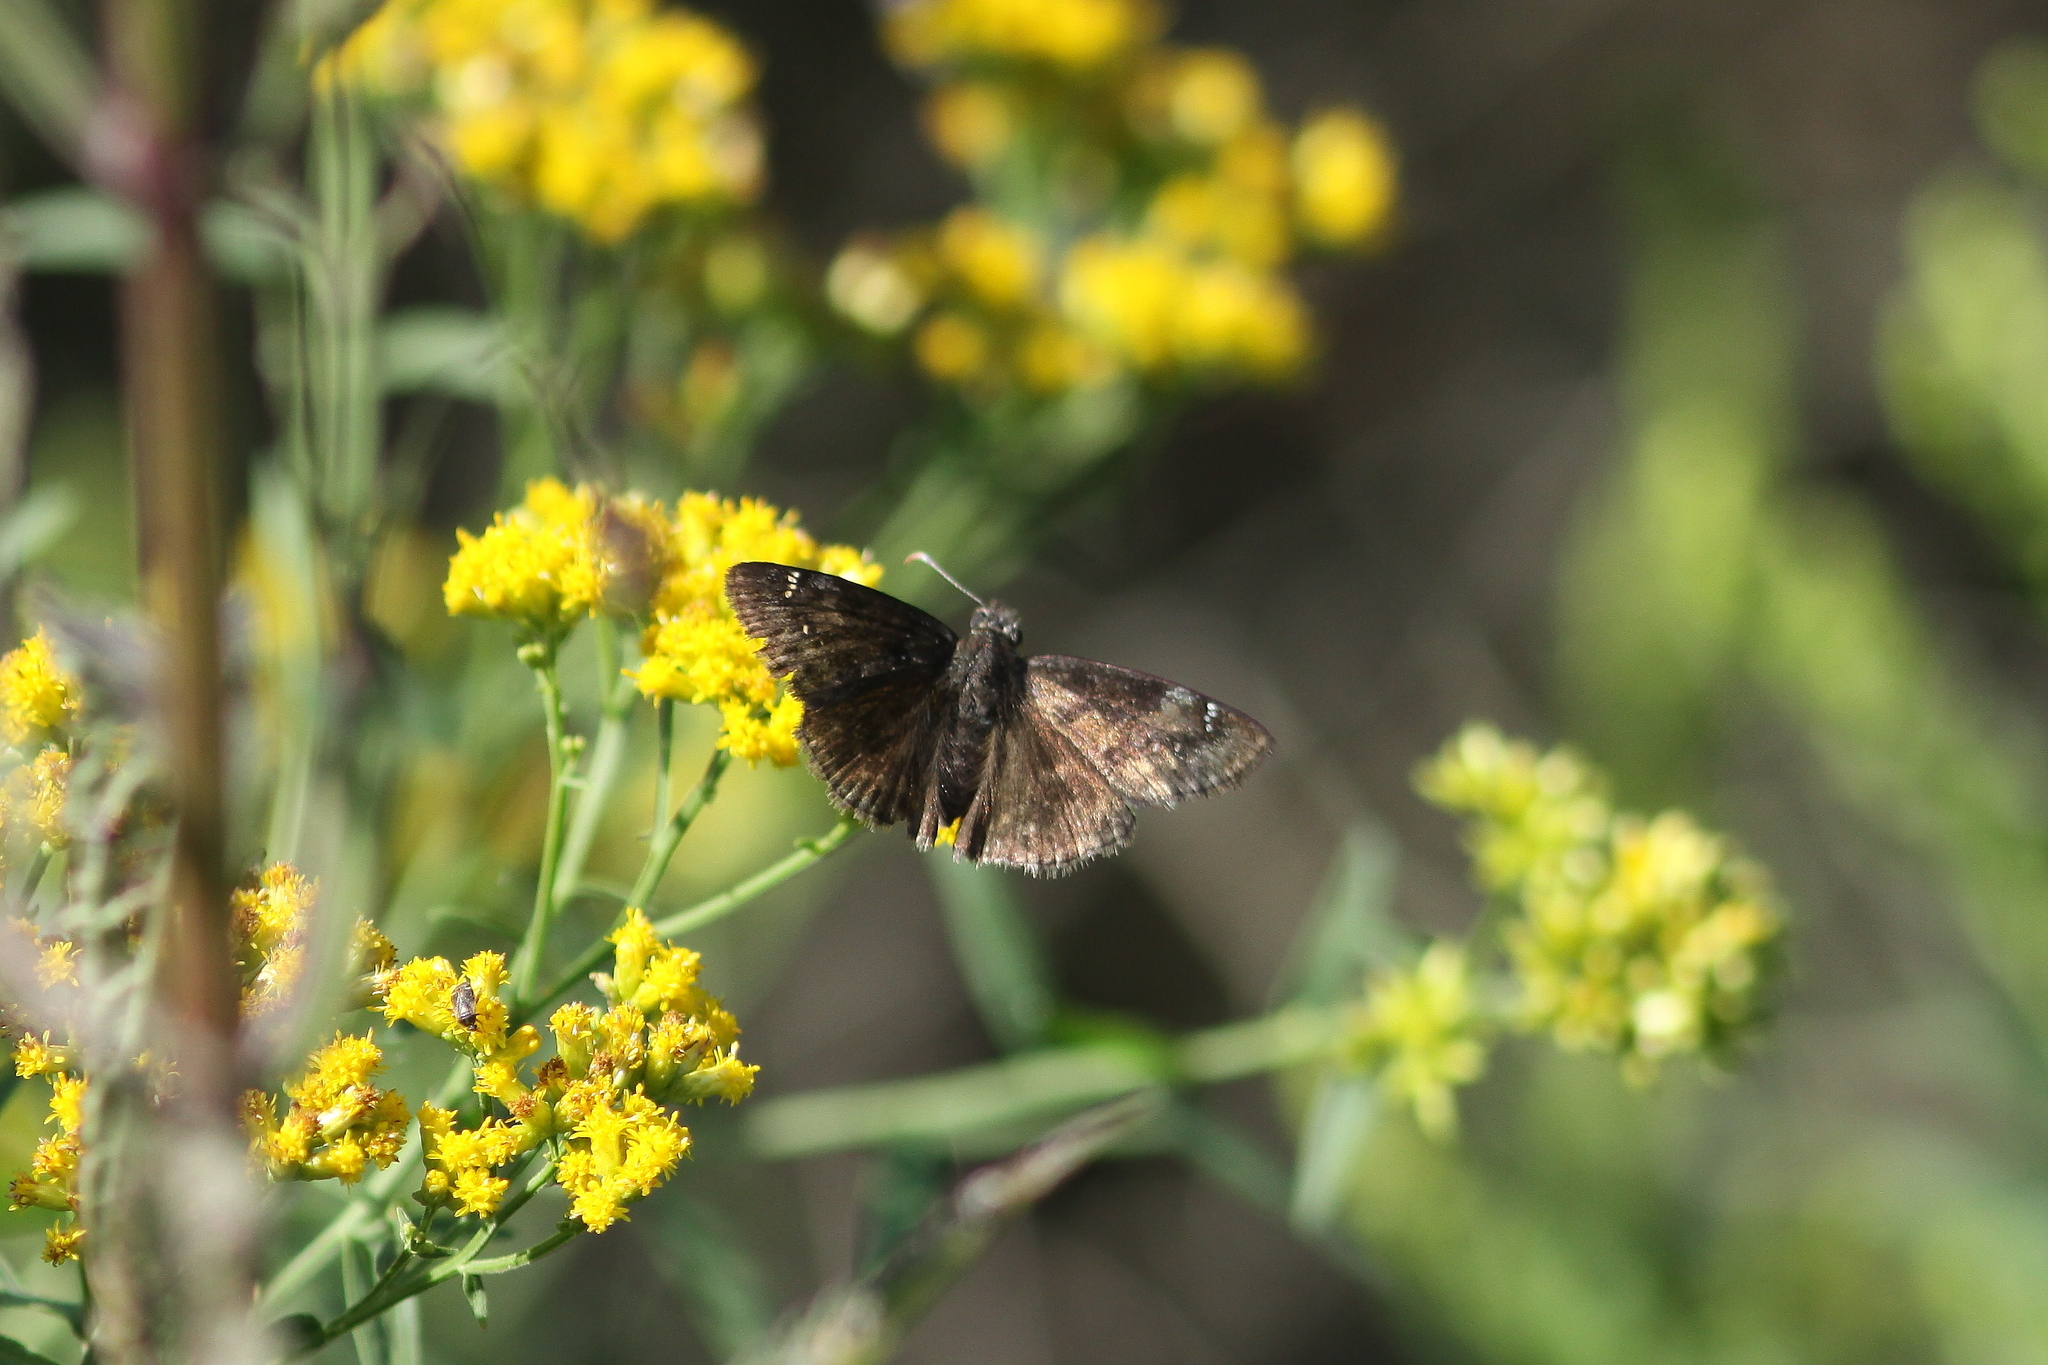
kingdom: Animalia
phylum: Arthropoda
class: Insecta
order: Lepidoptera
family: Hesperiidae
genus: Erynnis
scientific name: Erynnis baptisiae
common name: Wild indigo duskywing
